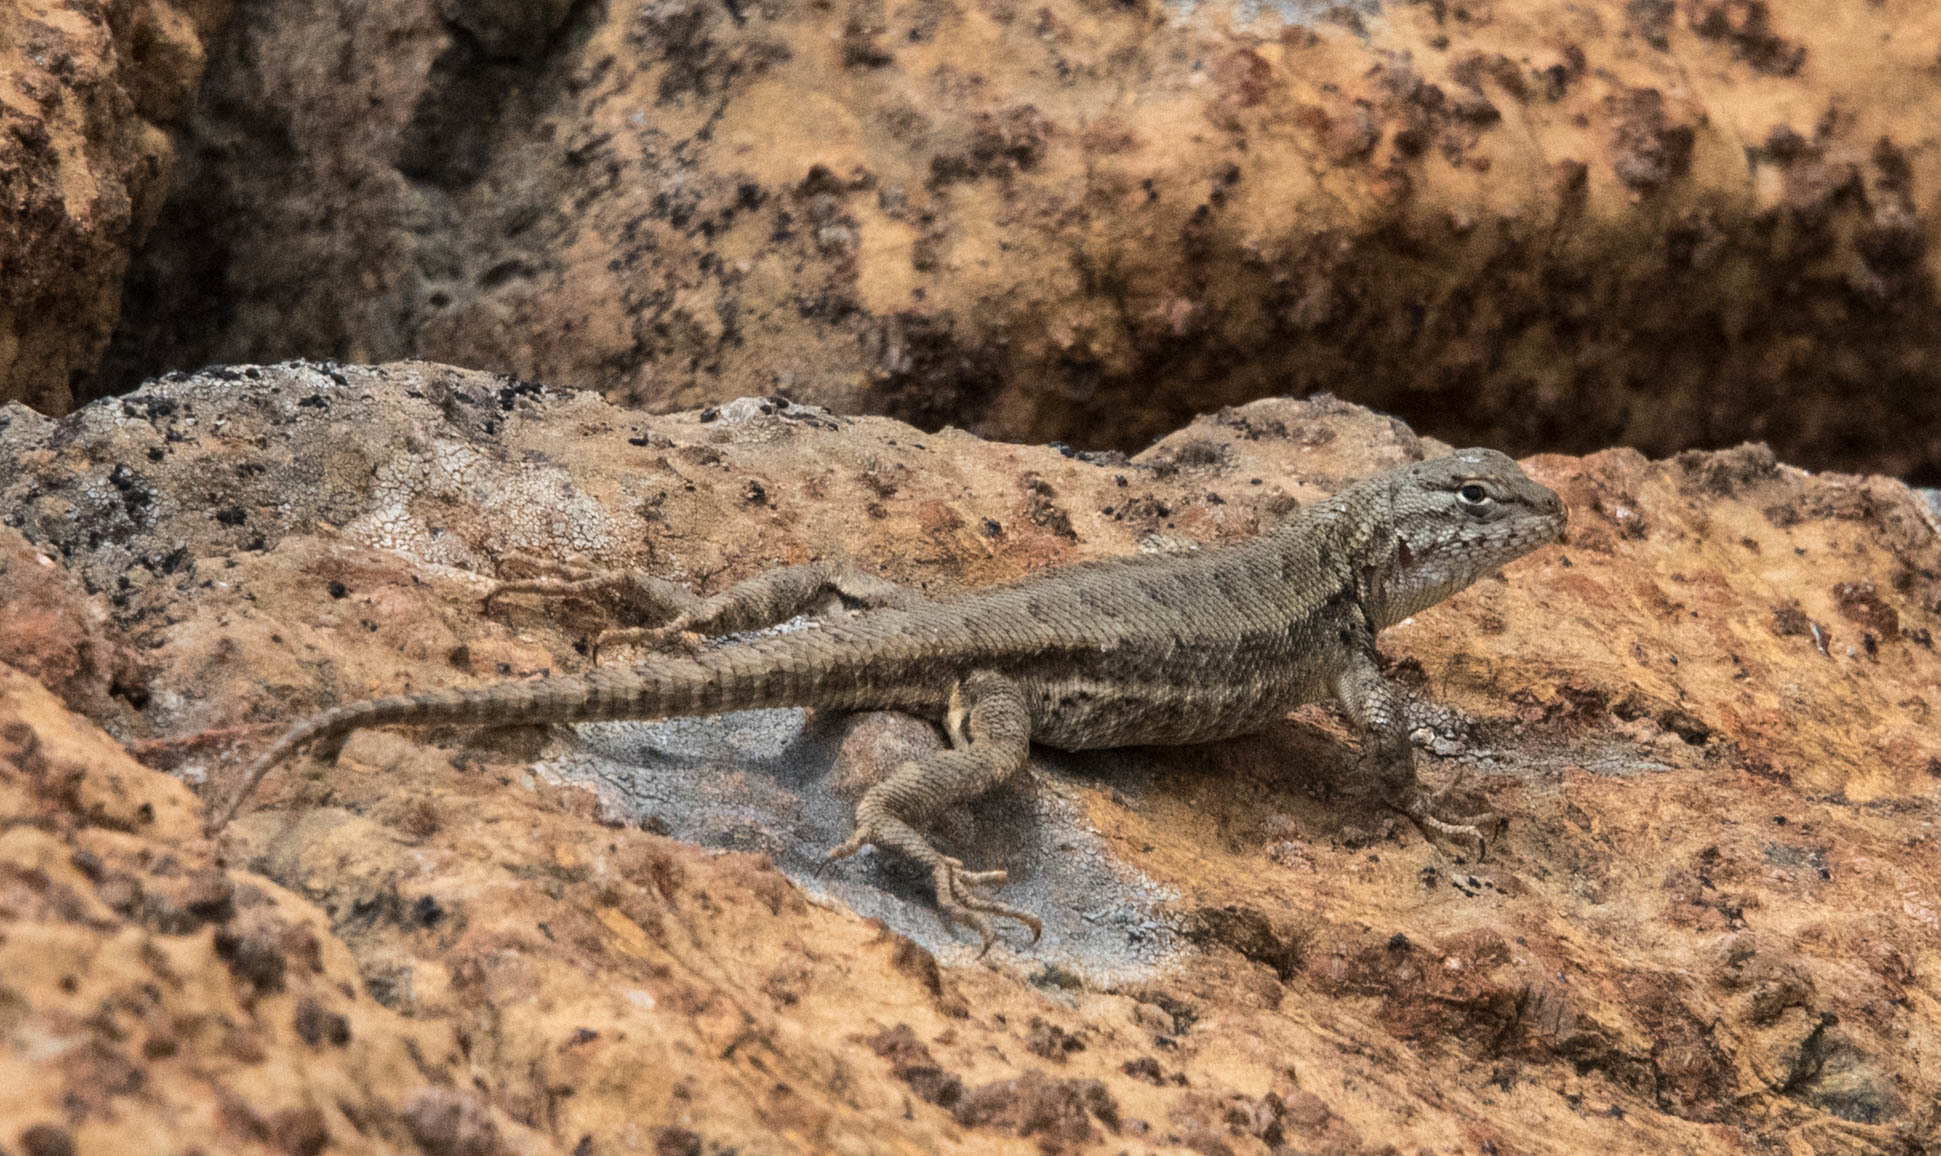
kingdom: Animalia
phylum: Chordata
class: Squamata
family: Phrynosomatidae
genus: Sceloporus
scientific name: Sceloporus graciosus
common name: Sagebrush lizard
